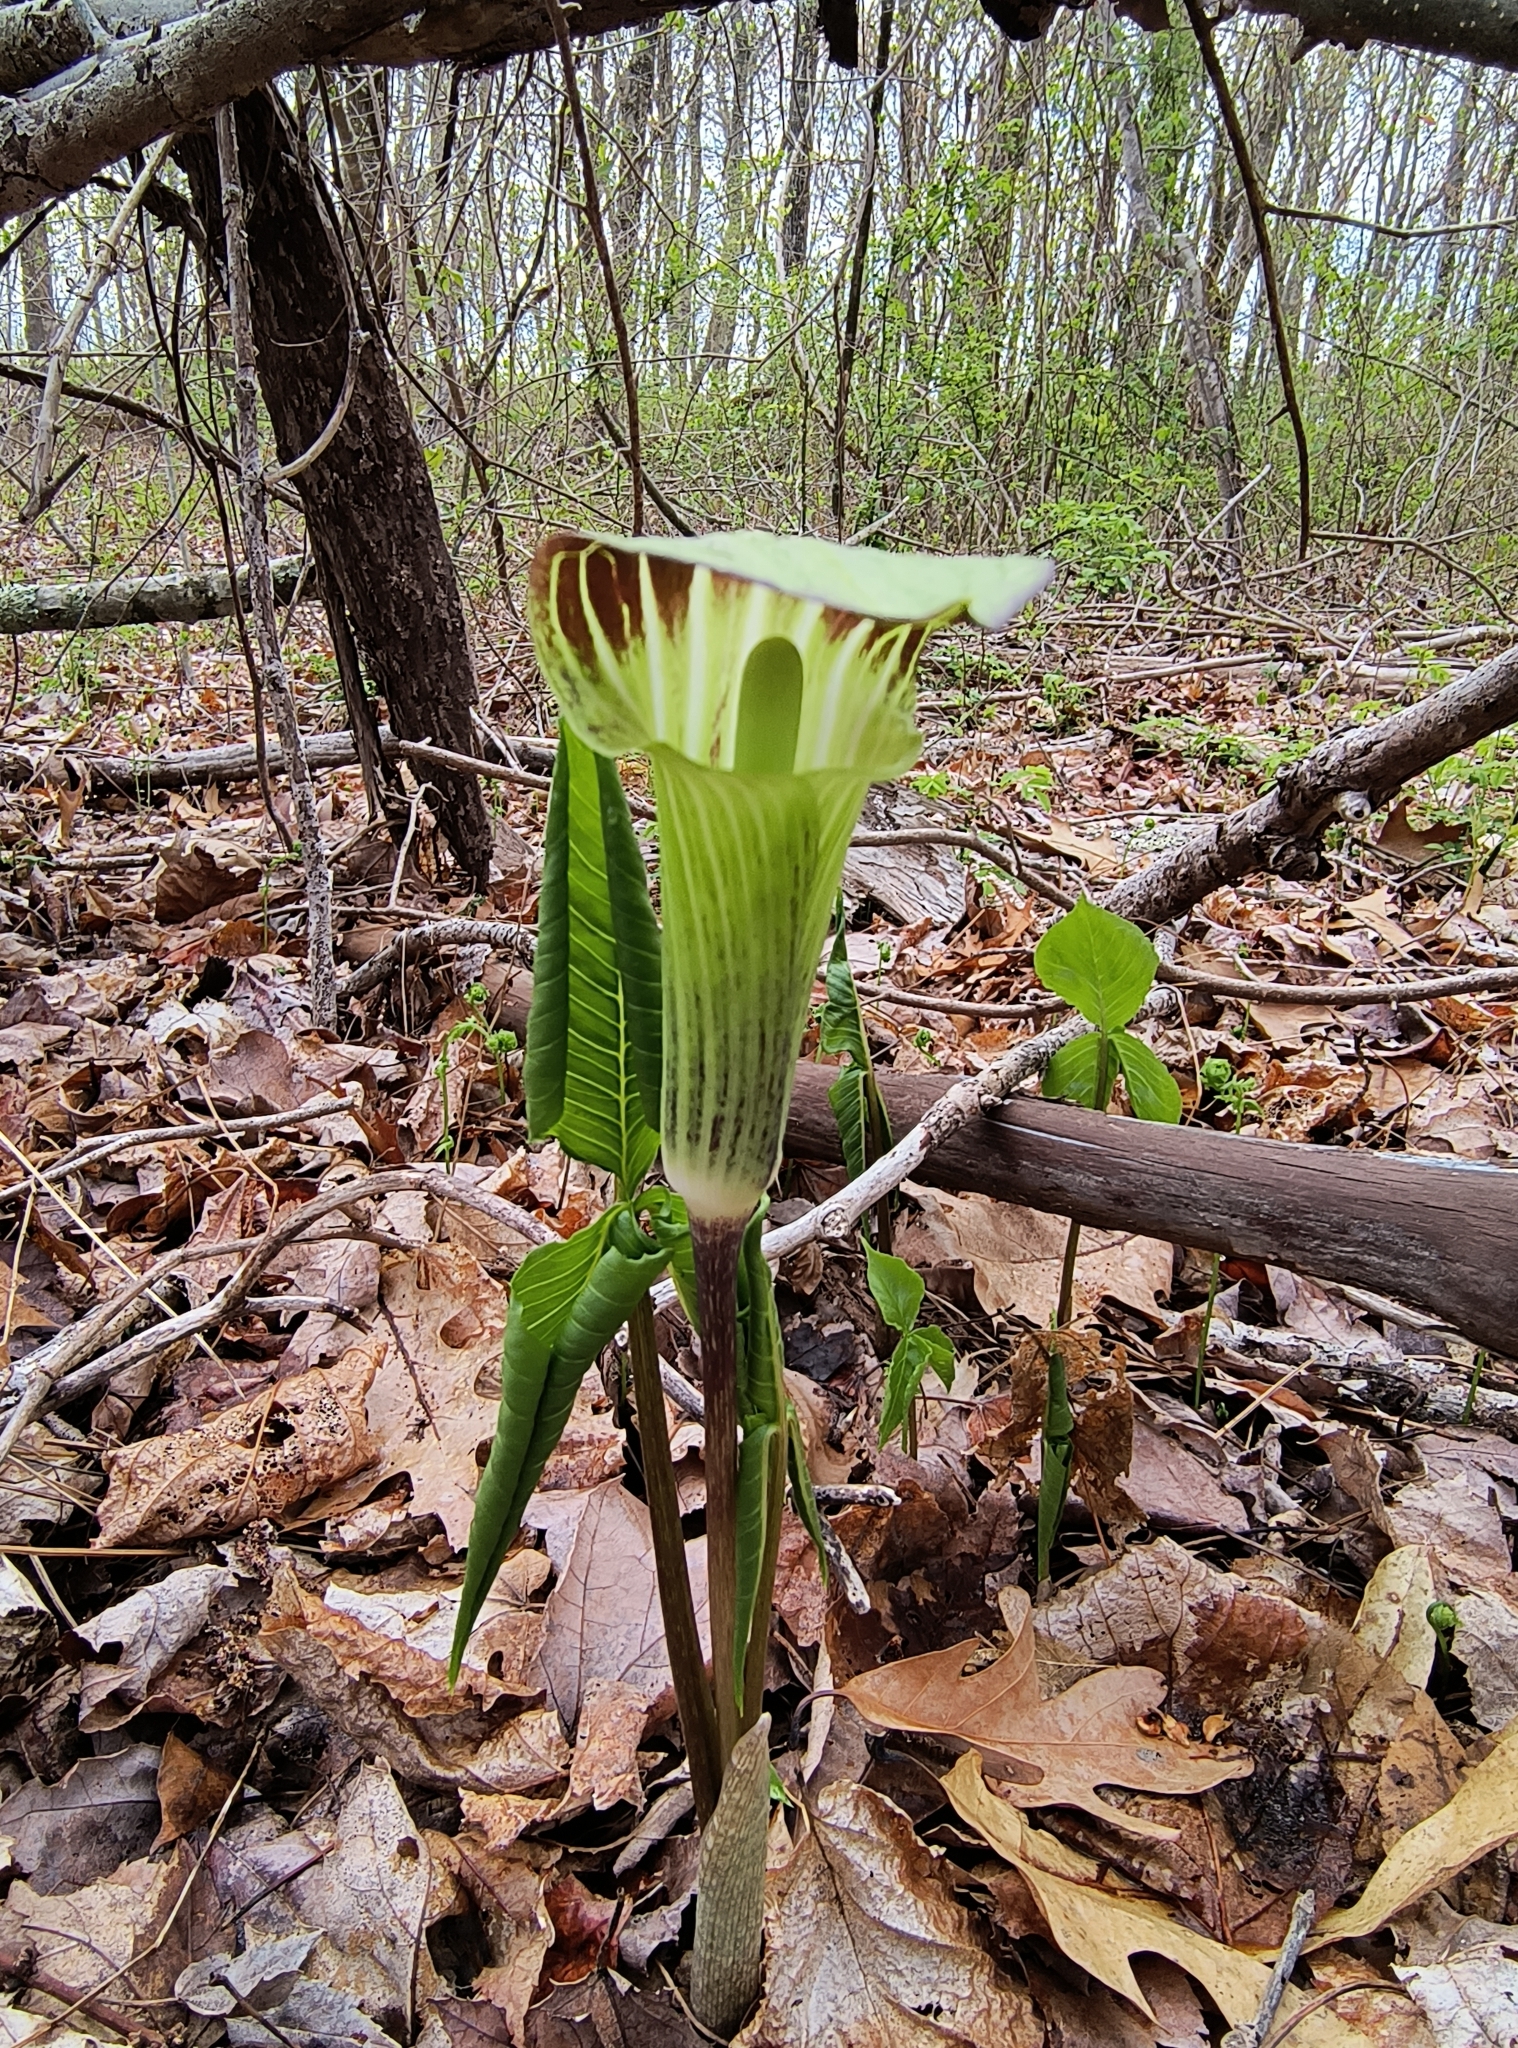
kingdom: Plantae
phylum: Tracheophyta
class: Liliopsida
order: Alismatales
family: Araceae
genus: Arisaema
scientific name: Arisaema triphyllum
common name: Jack-in-the-pulpit
